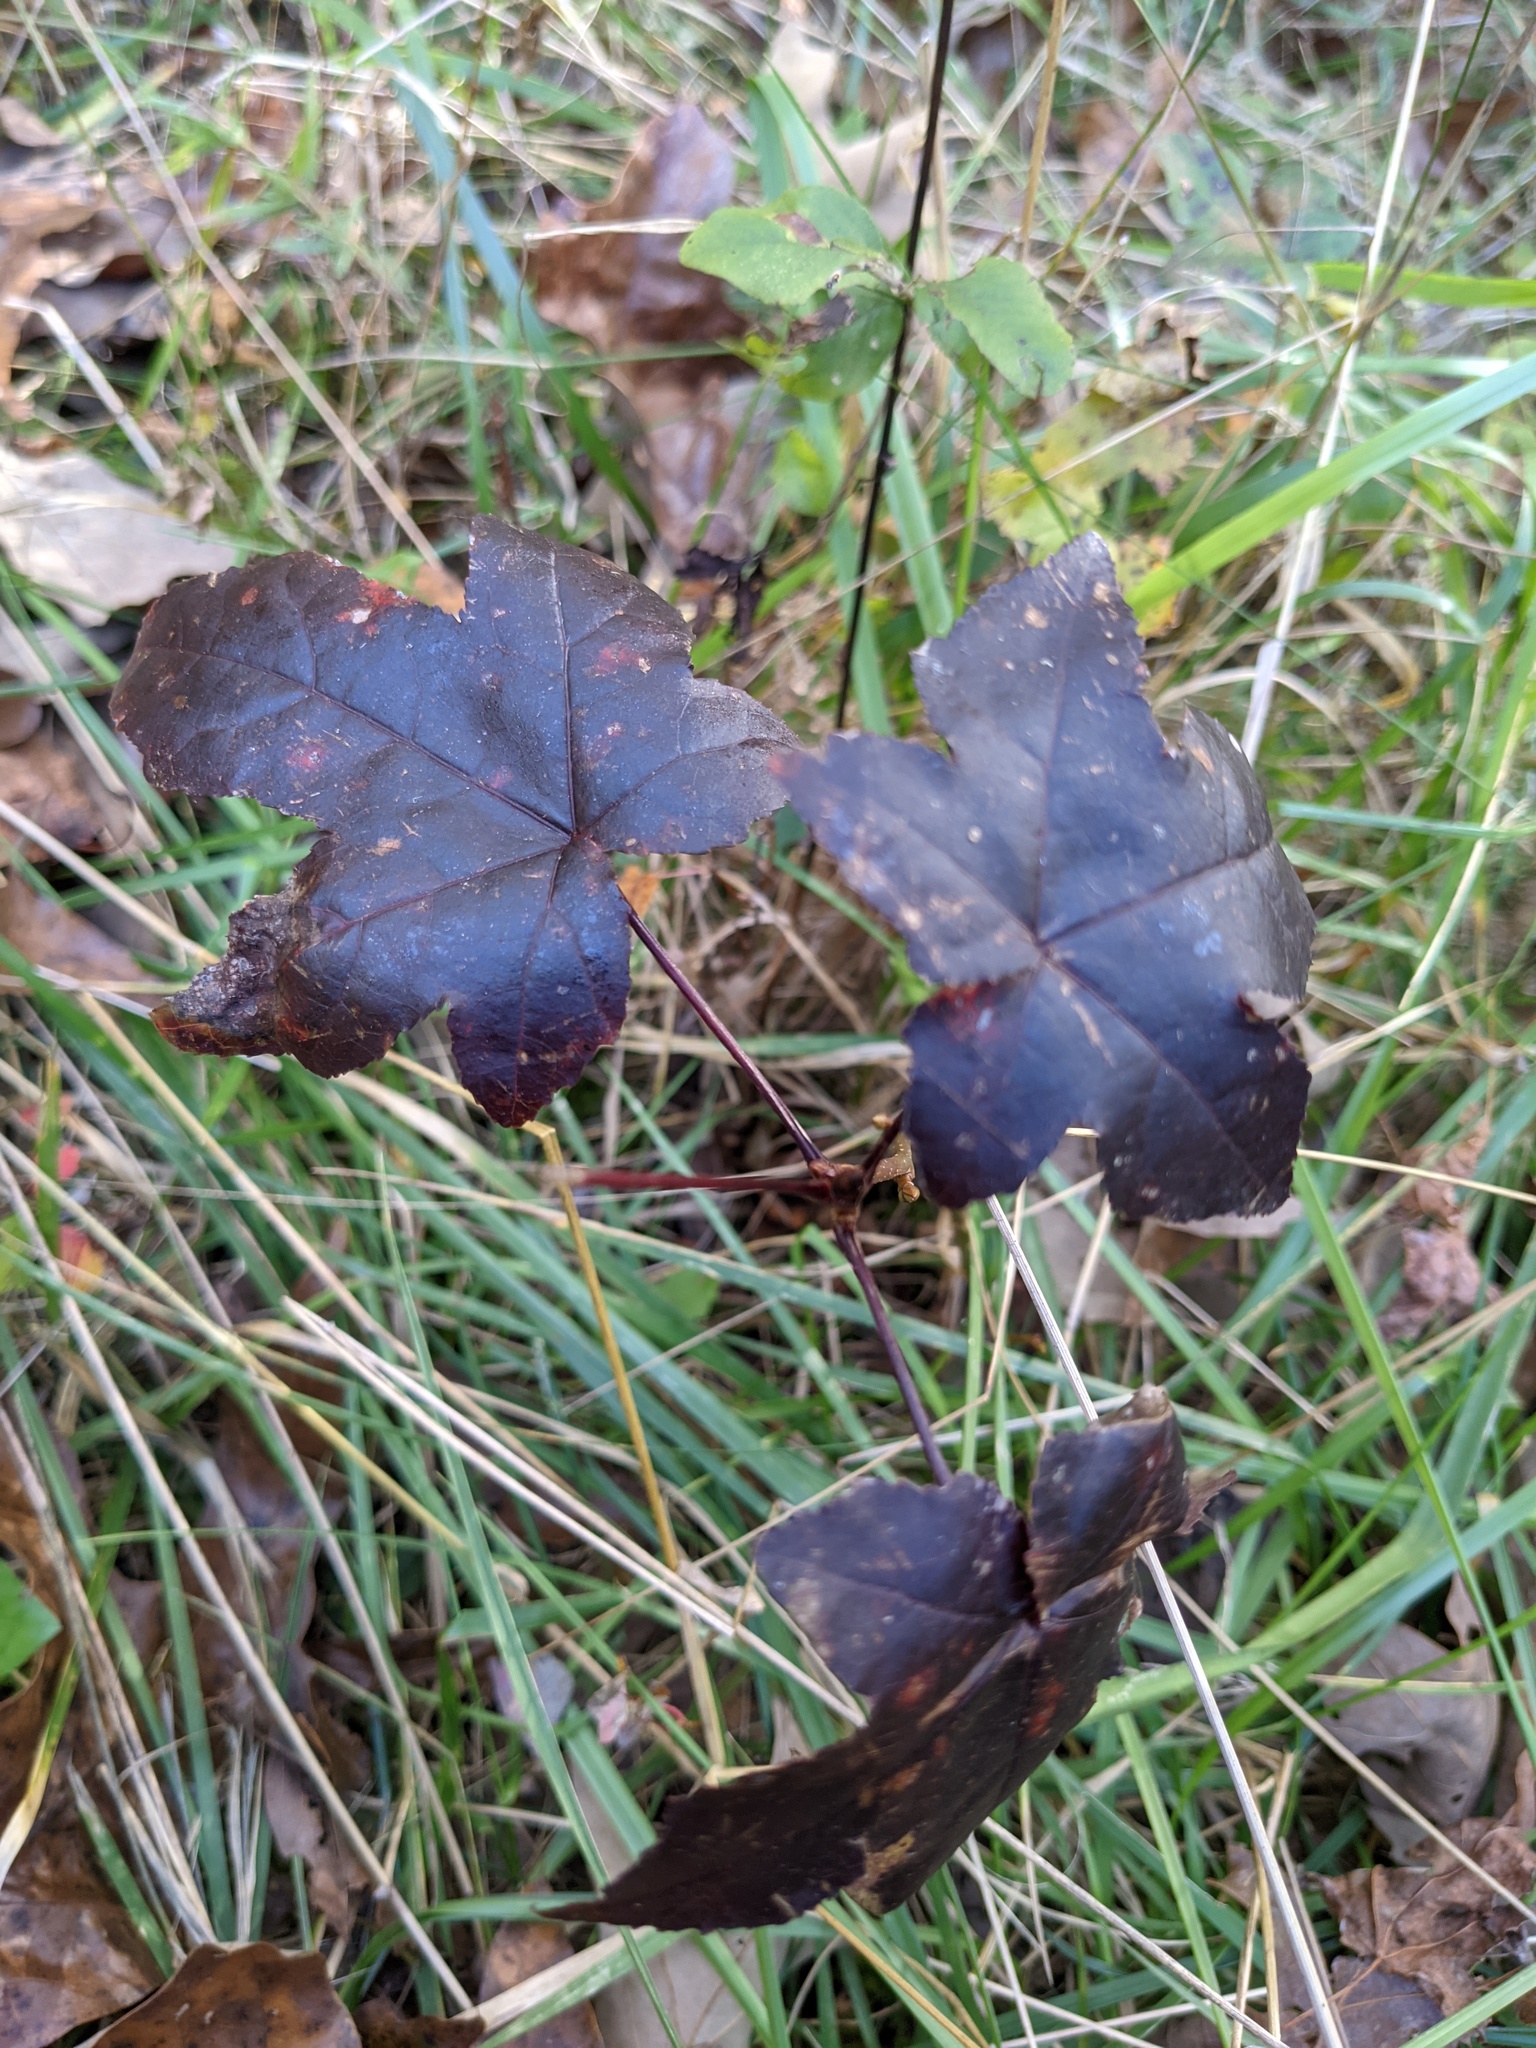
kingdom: Plantae
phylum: Tracheophyta
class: Magnoliopsida
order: Saxifragales
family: Altingiaceae
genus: Liquidambar
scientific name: Liquidambar styraciflua
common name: Sweet gum
